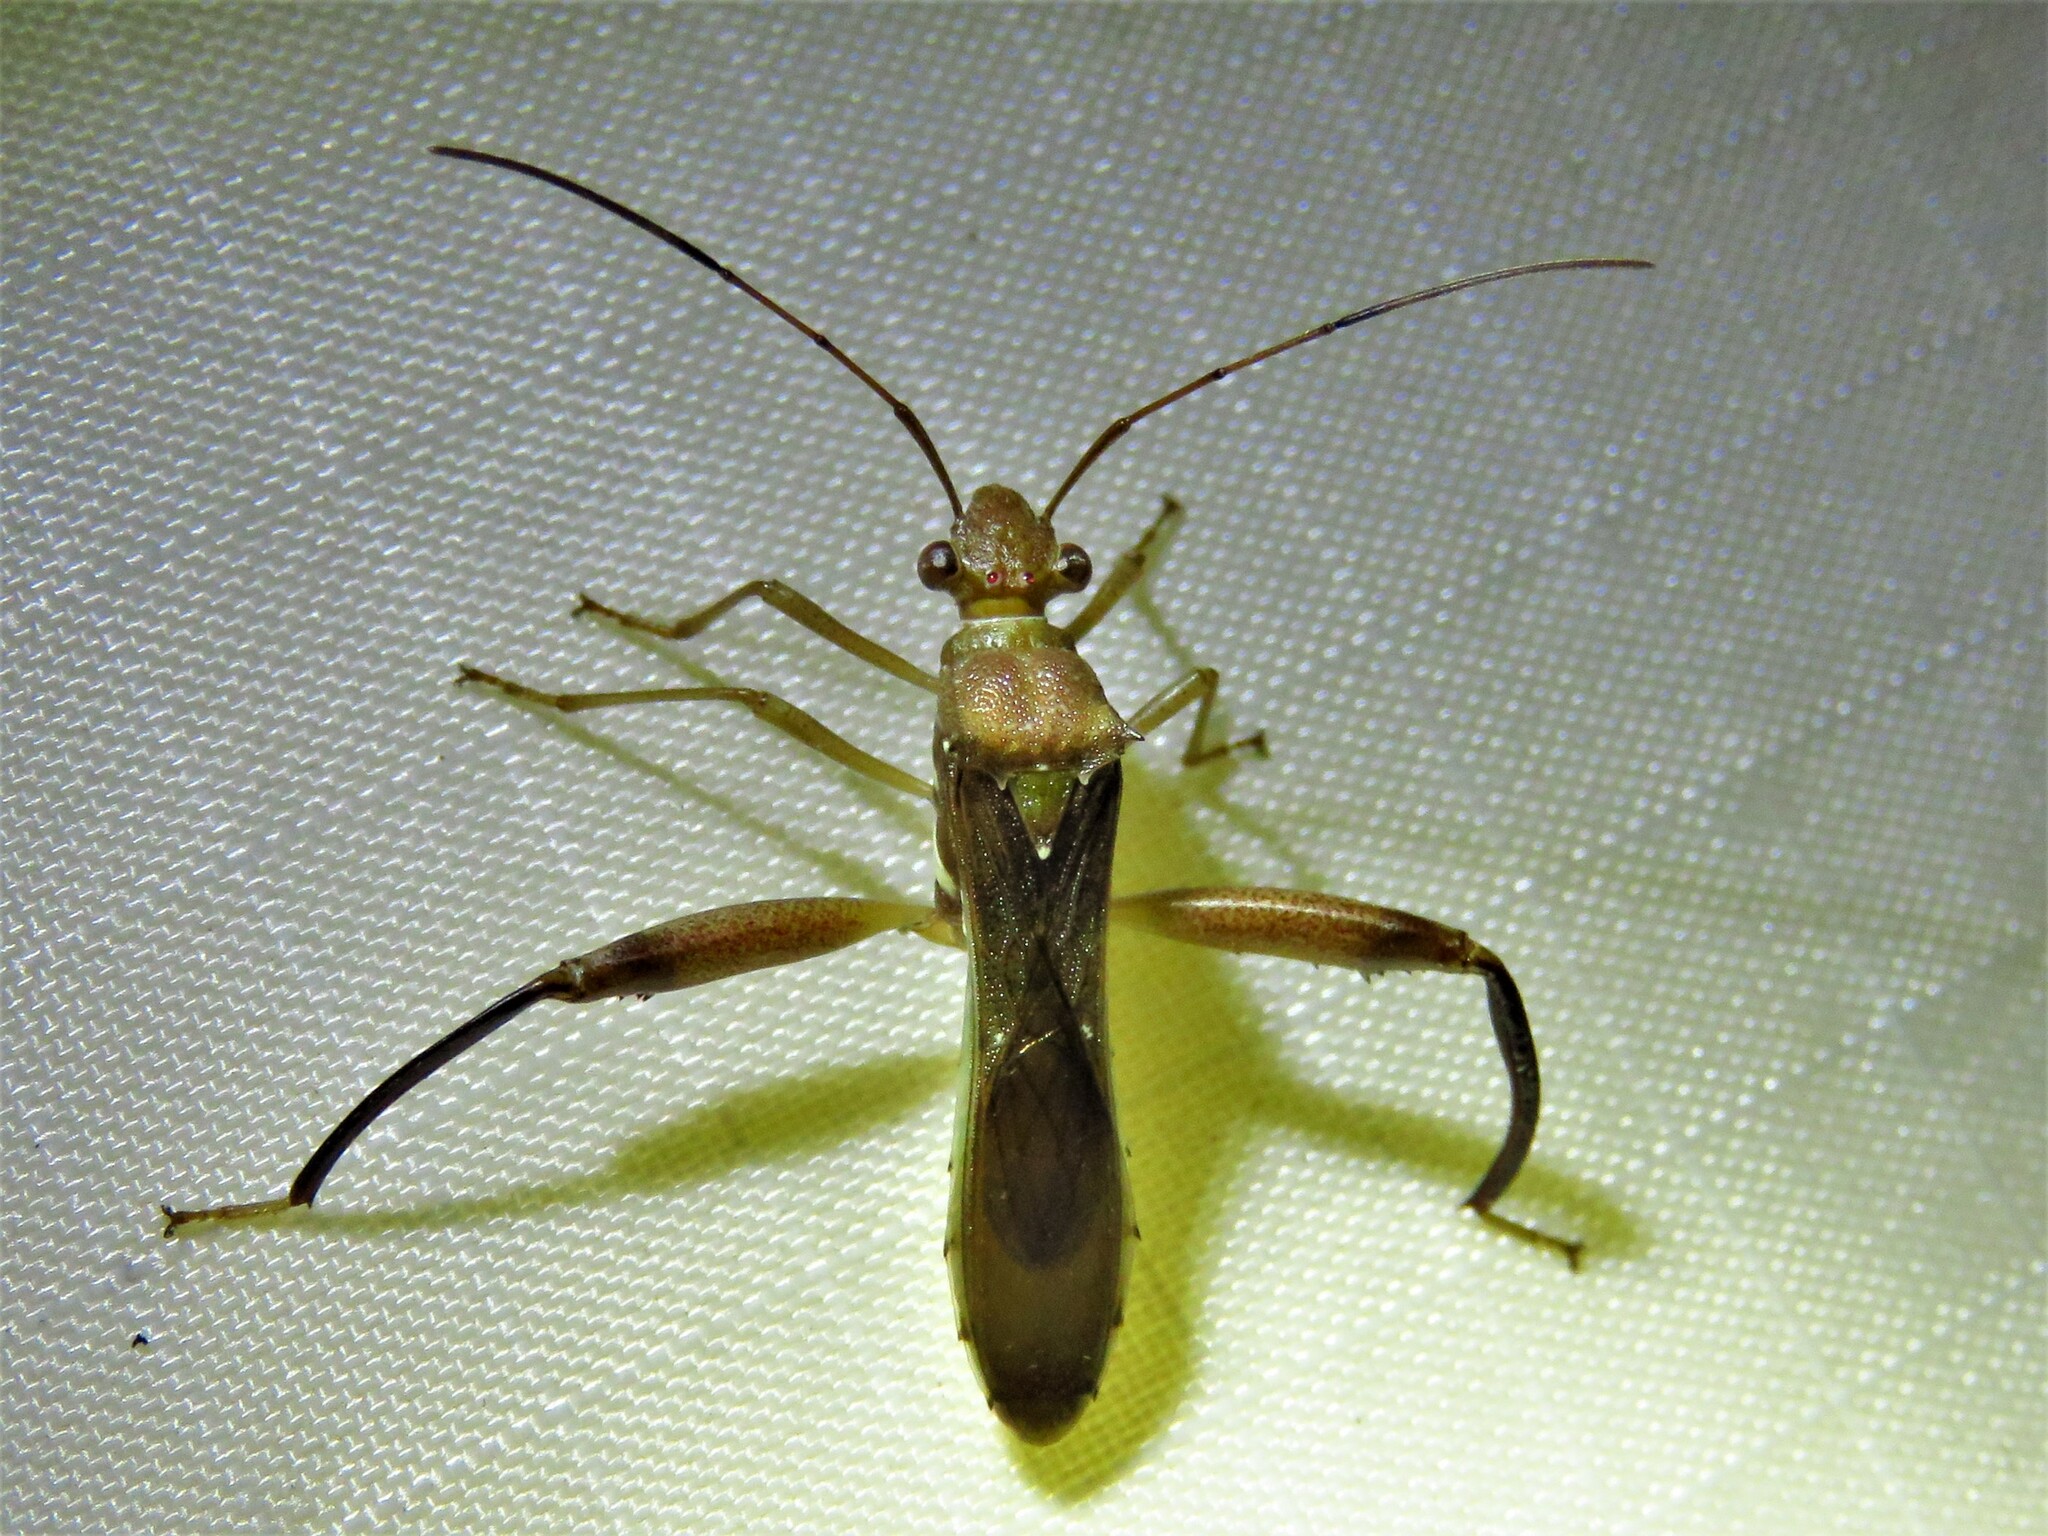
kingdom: Animalia
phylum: Arthropoda
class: Insecta
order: Hemiptera
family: Alydidae
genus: Hyalymenus
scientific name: Hyalymenus tarsatus
